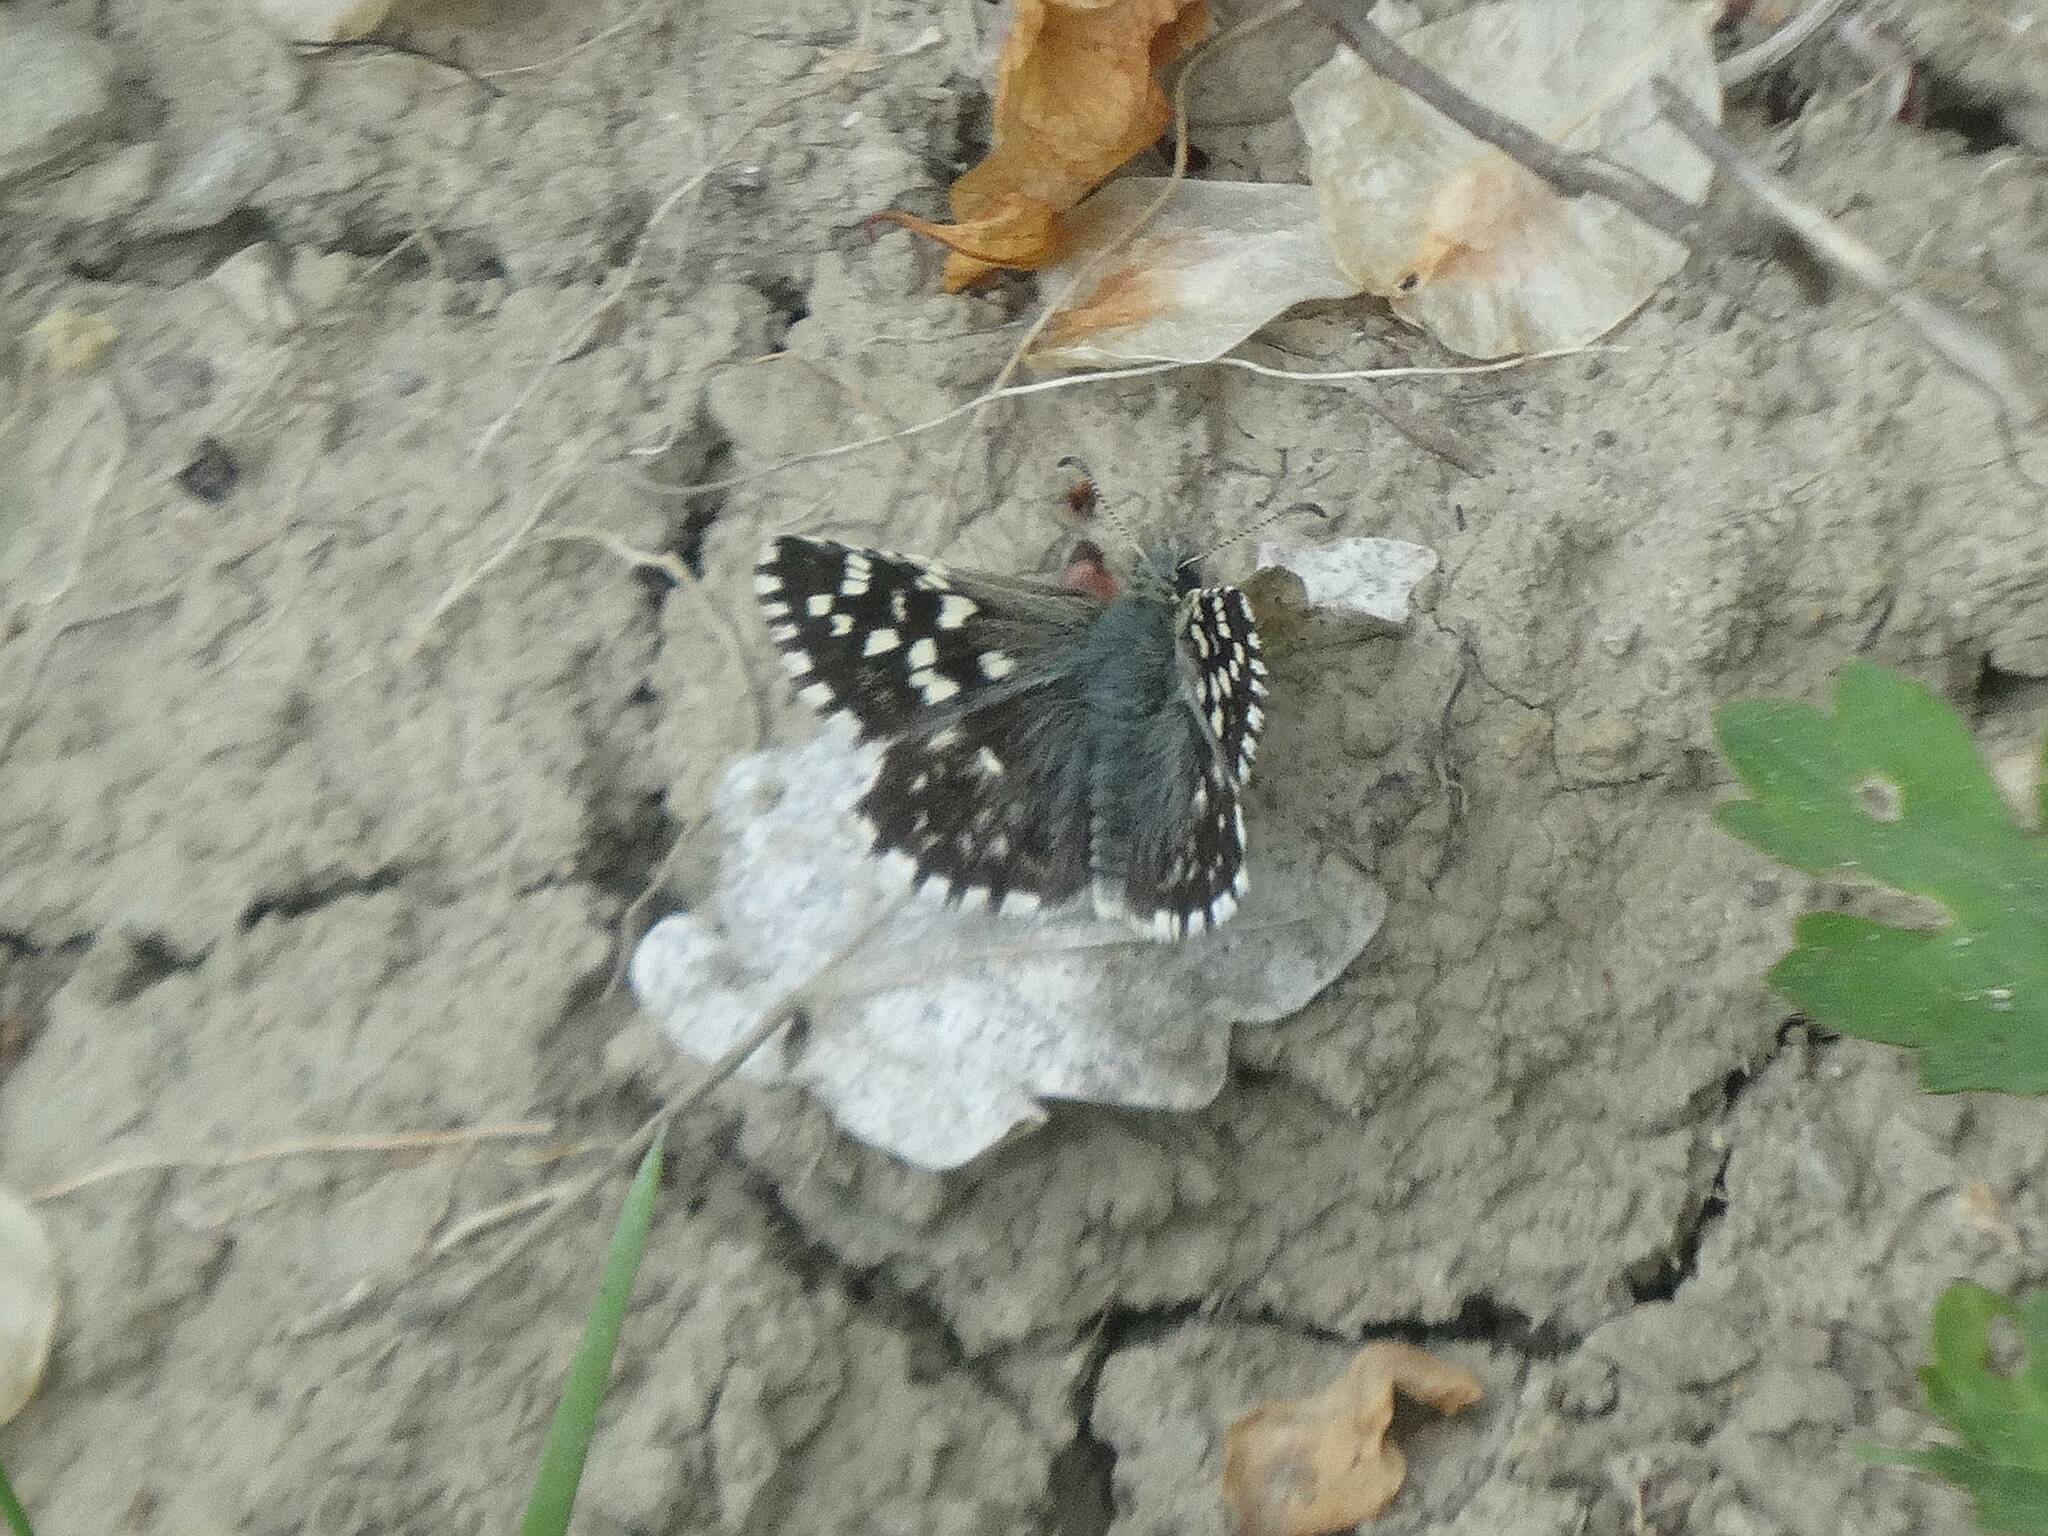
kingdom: Animalia
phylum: Arthropoda
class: Insecta
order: Lepidoptera
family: Hesperiidae
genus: Pyrgus
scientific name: Pyrgus malvae
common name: Grizzled skipper
